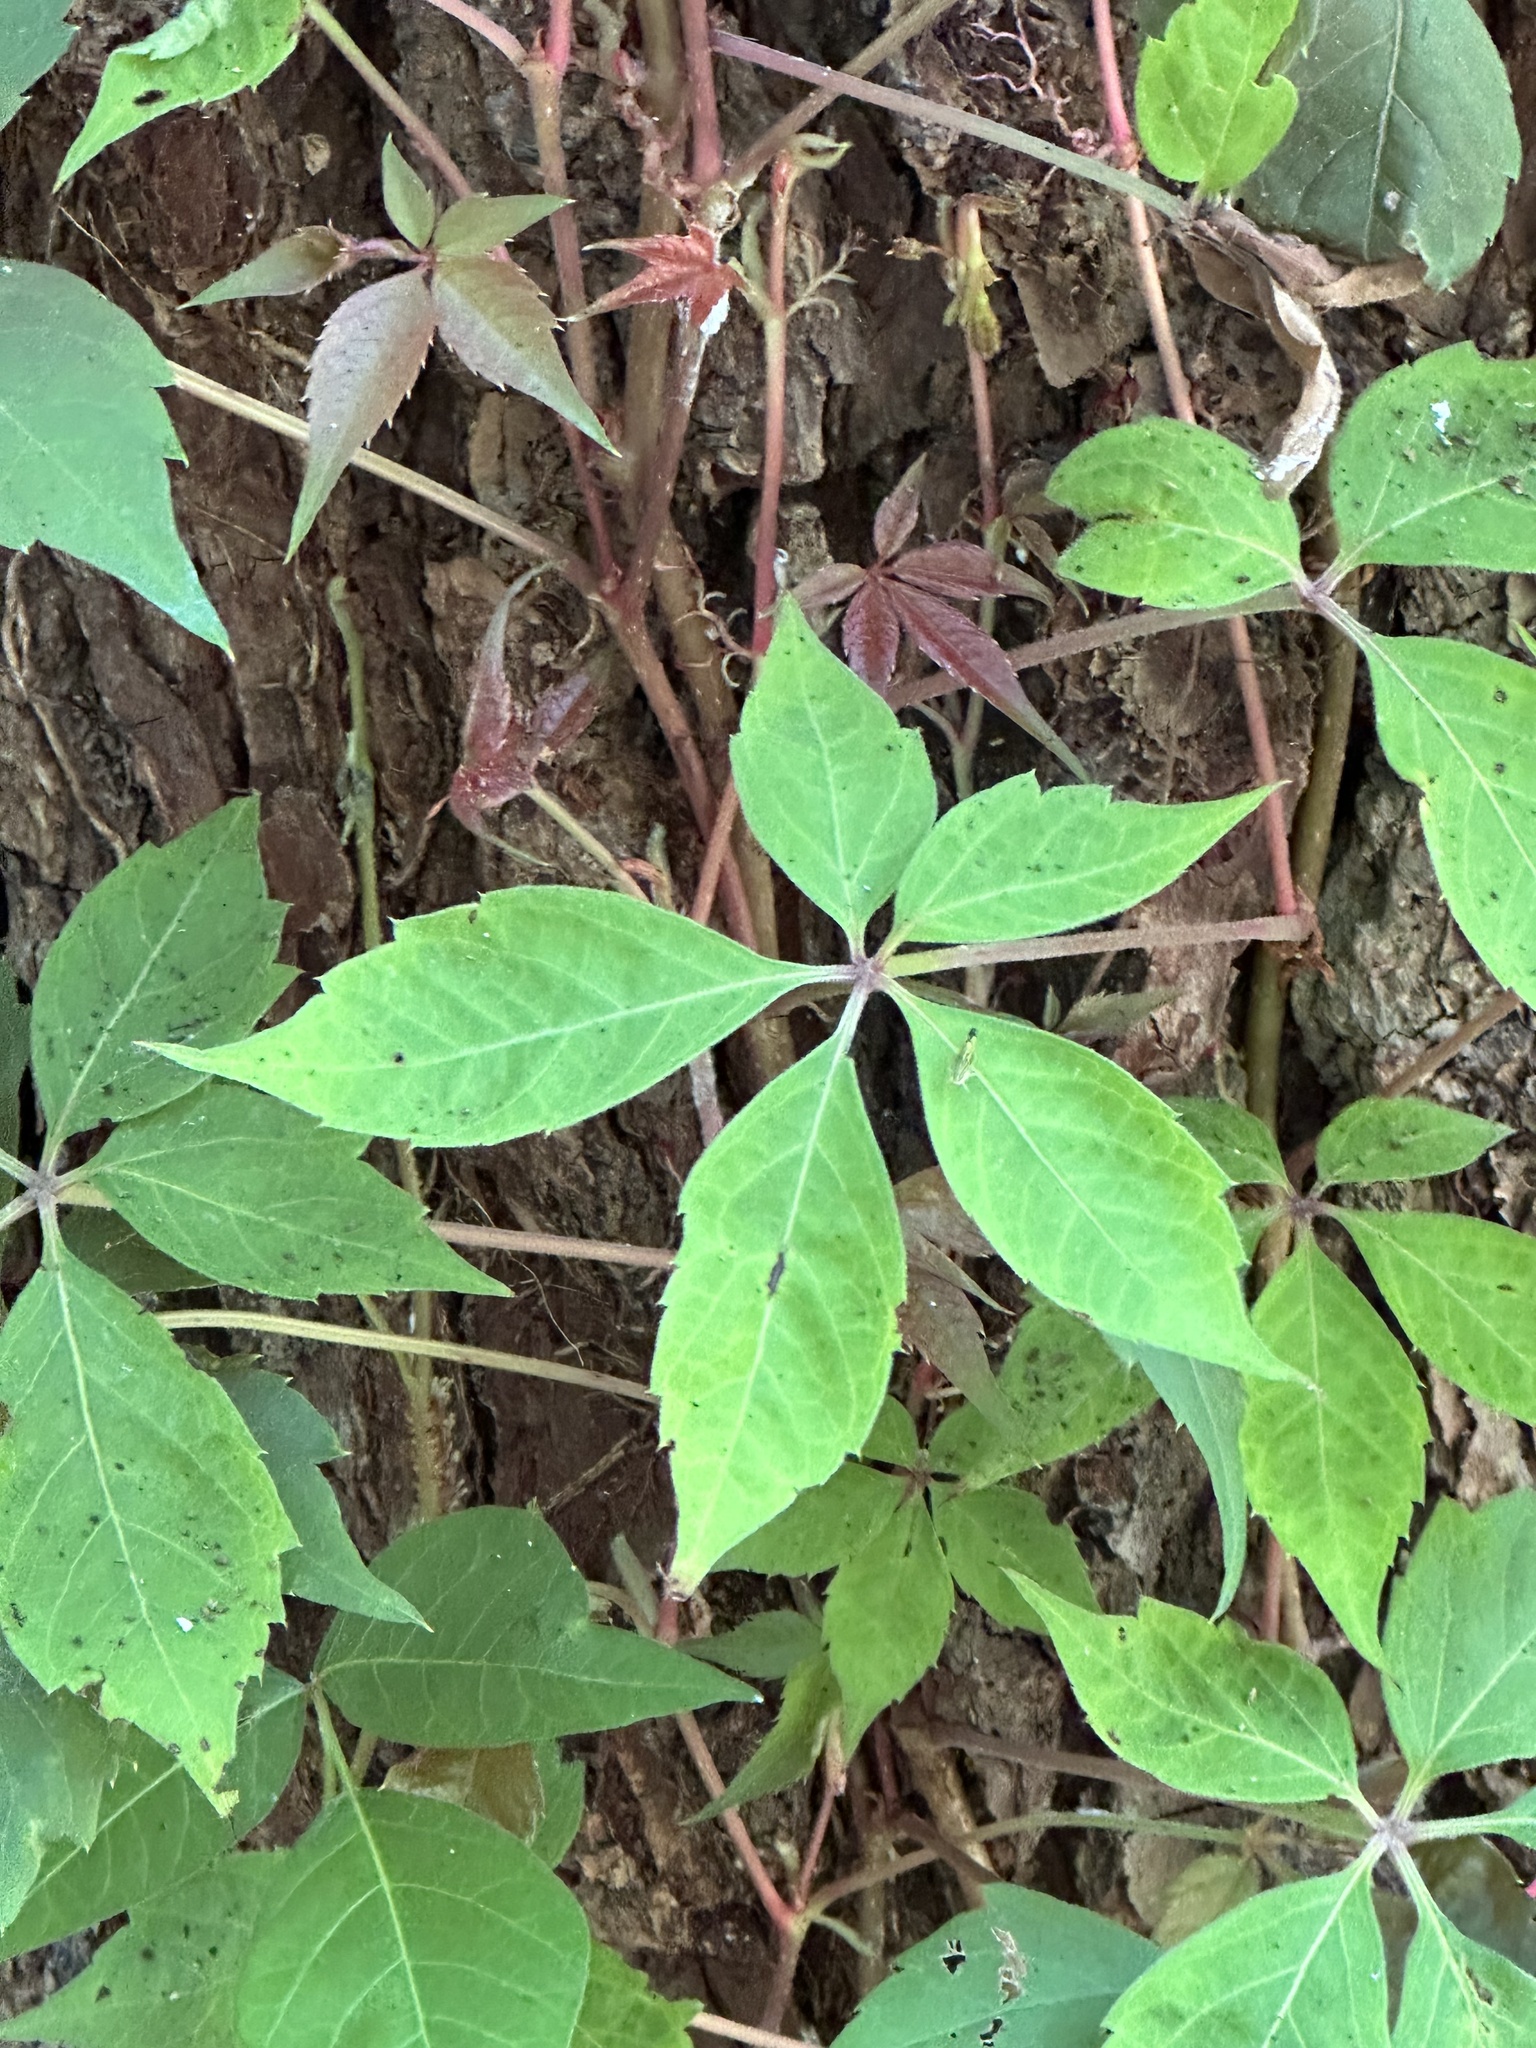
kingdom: Plantae
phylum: Tracheophyta
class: Magnoliopsida
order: Vitales
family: Vitaceae
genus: Parthenocissus
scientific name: Parthenocissus quinquefolia
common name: Virginia-creeper
